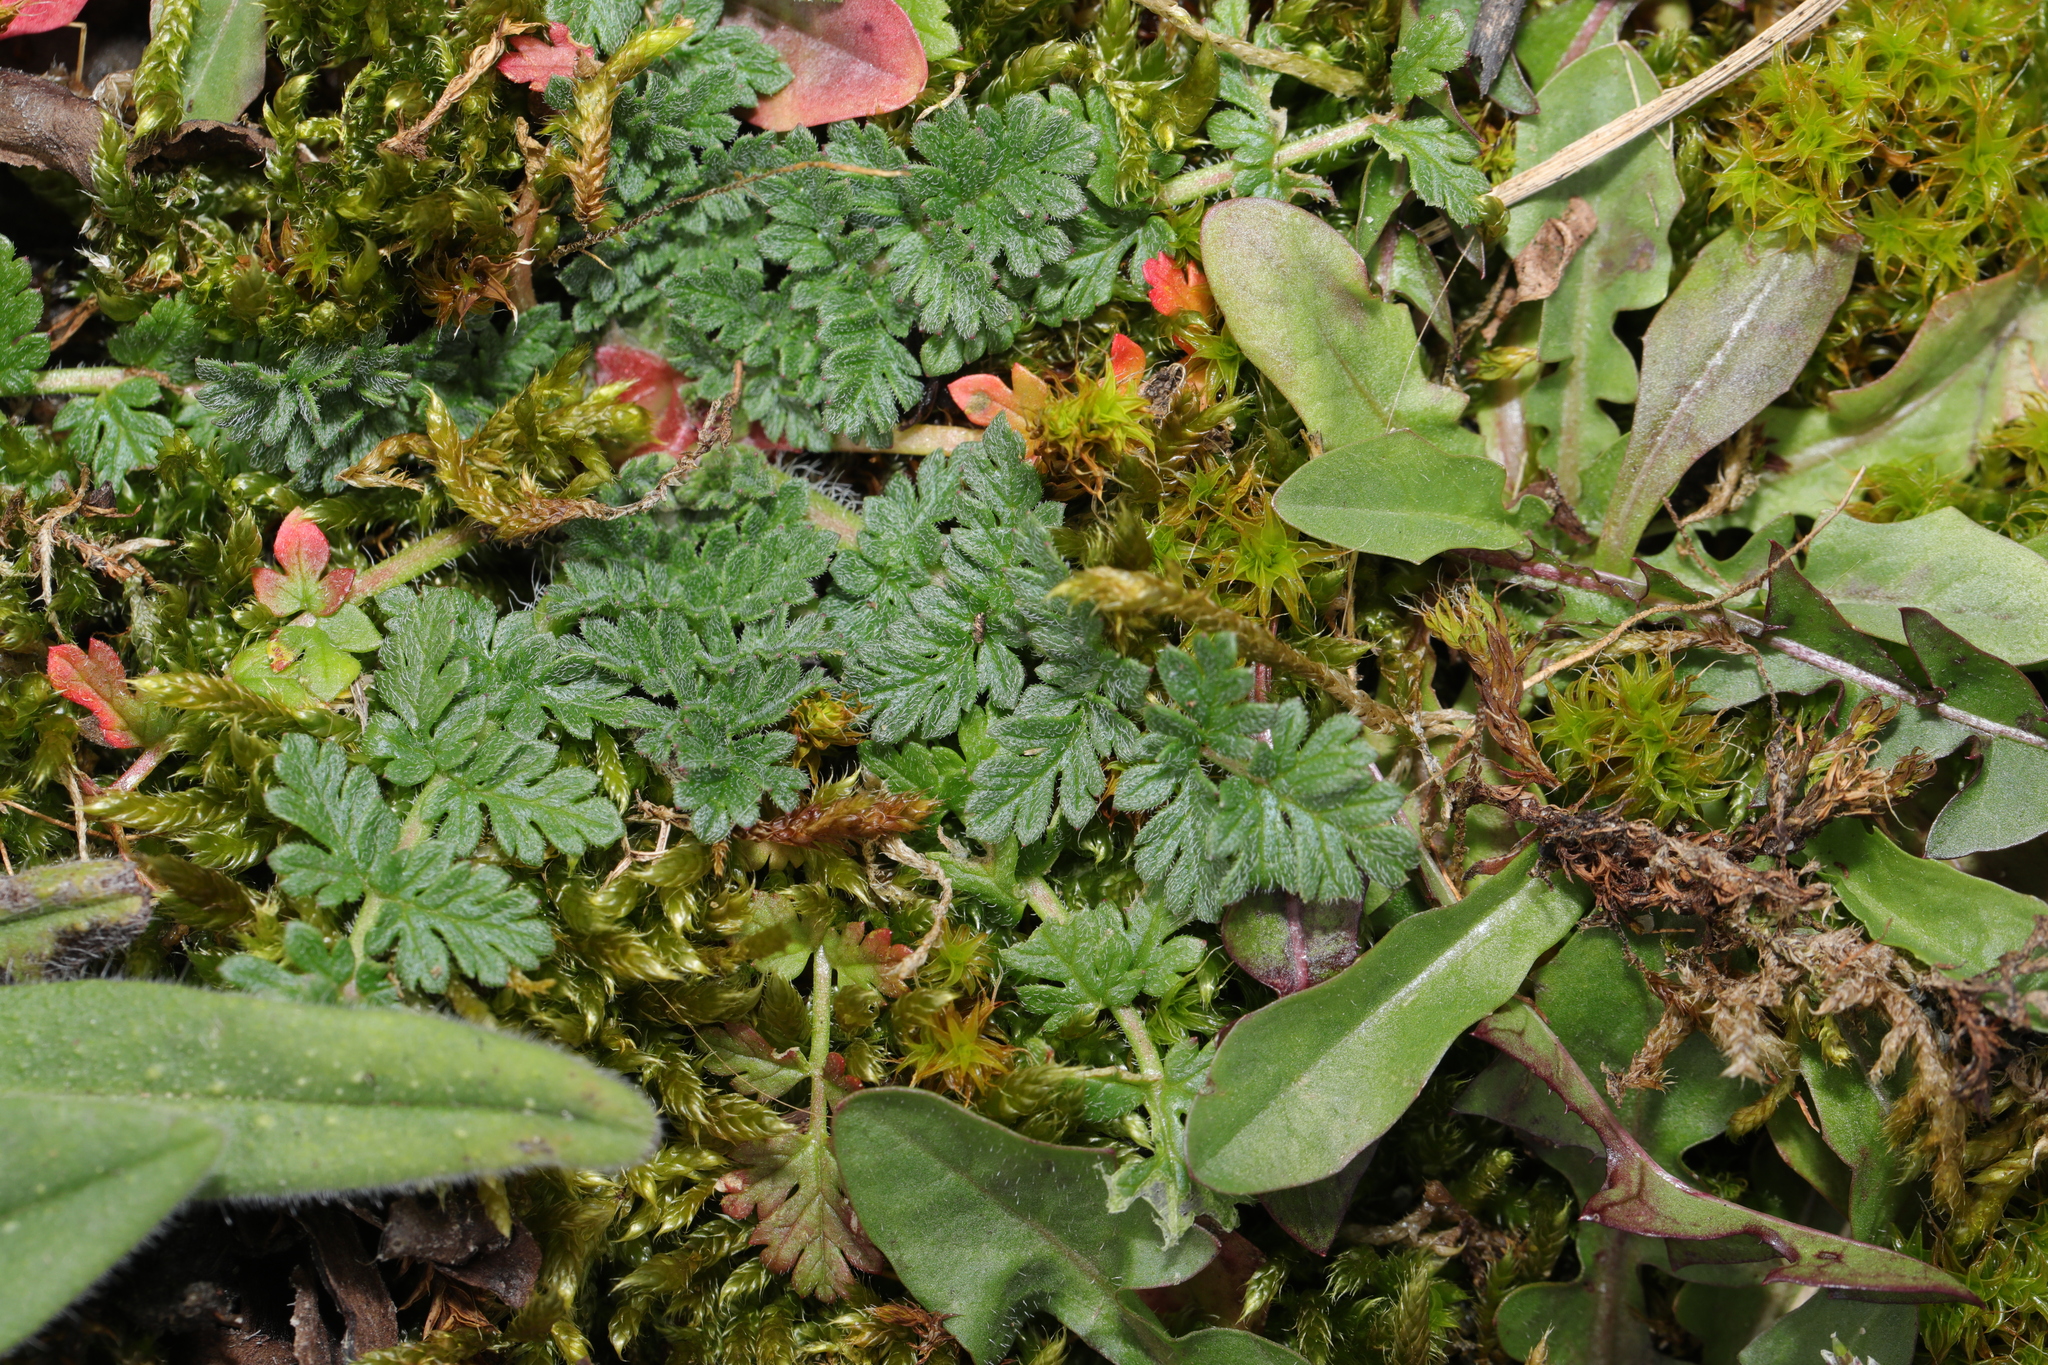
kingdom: Plantae
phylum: Tracheophyta
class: Magnoliopsida
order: Geraniales
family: Geraniaceae
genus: Erodium
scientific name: Erodium cicutarium
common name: Common stork's-bill
